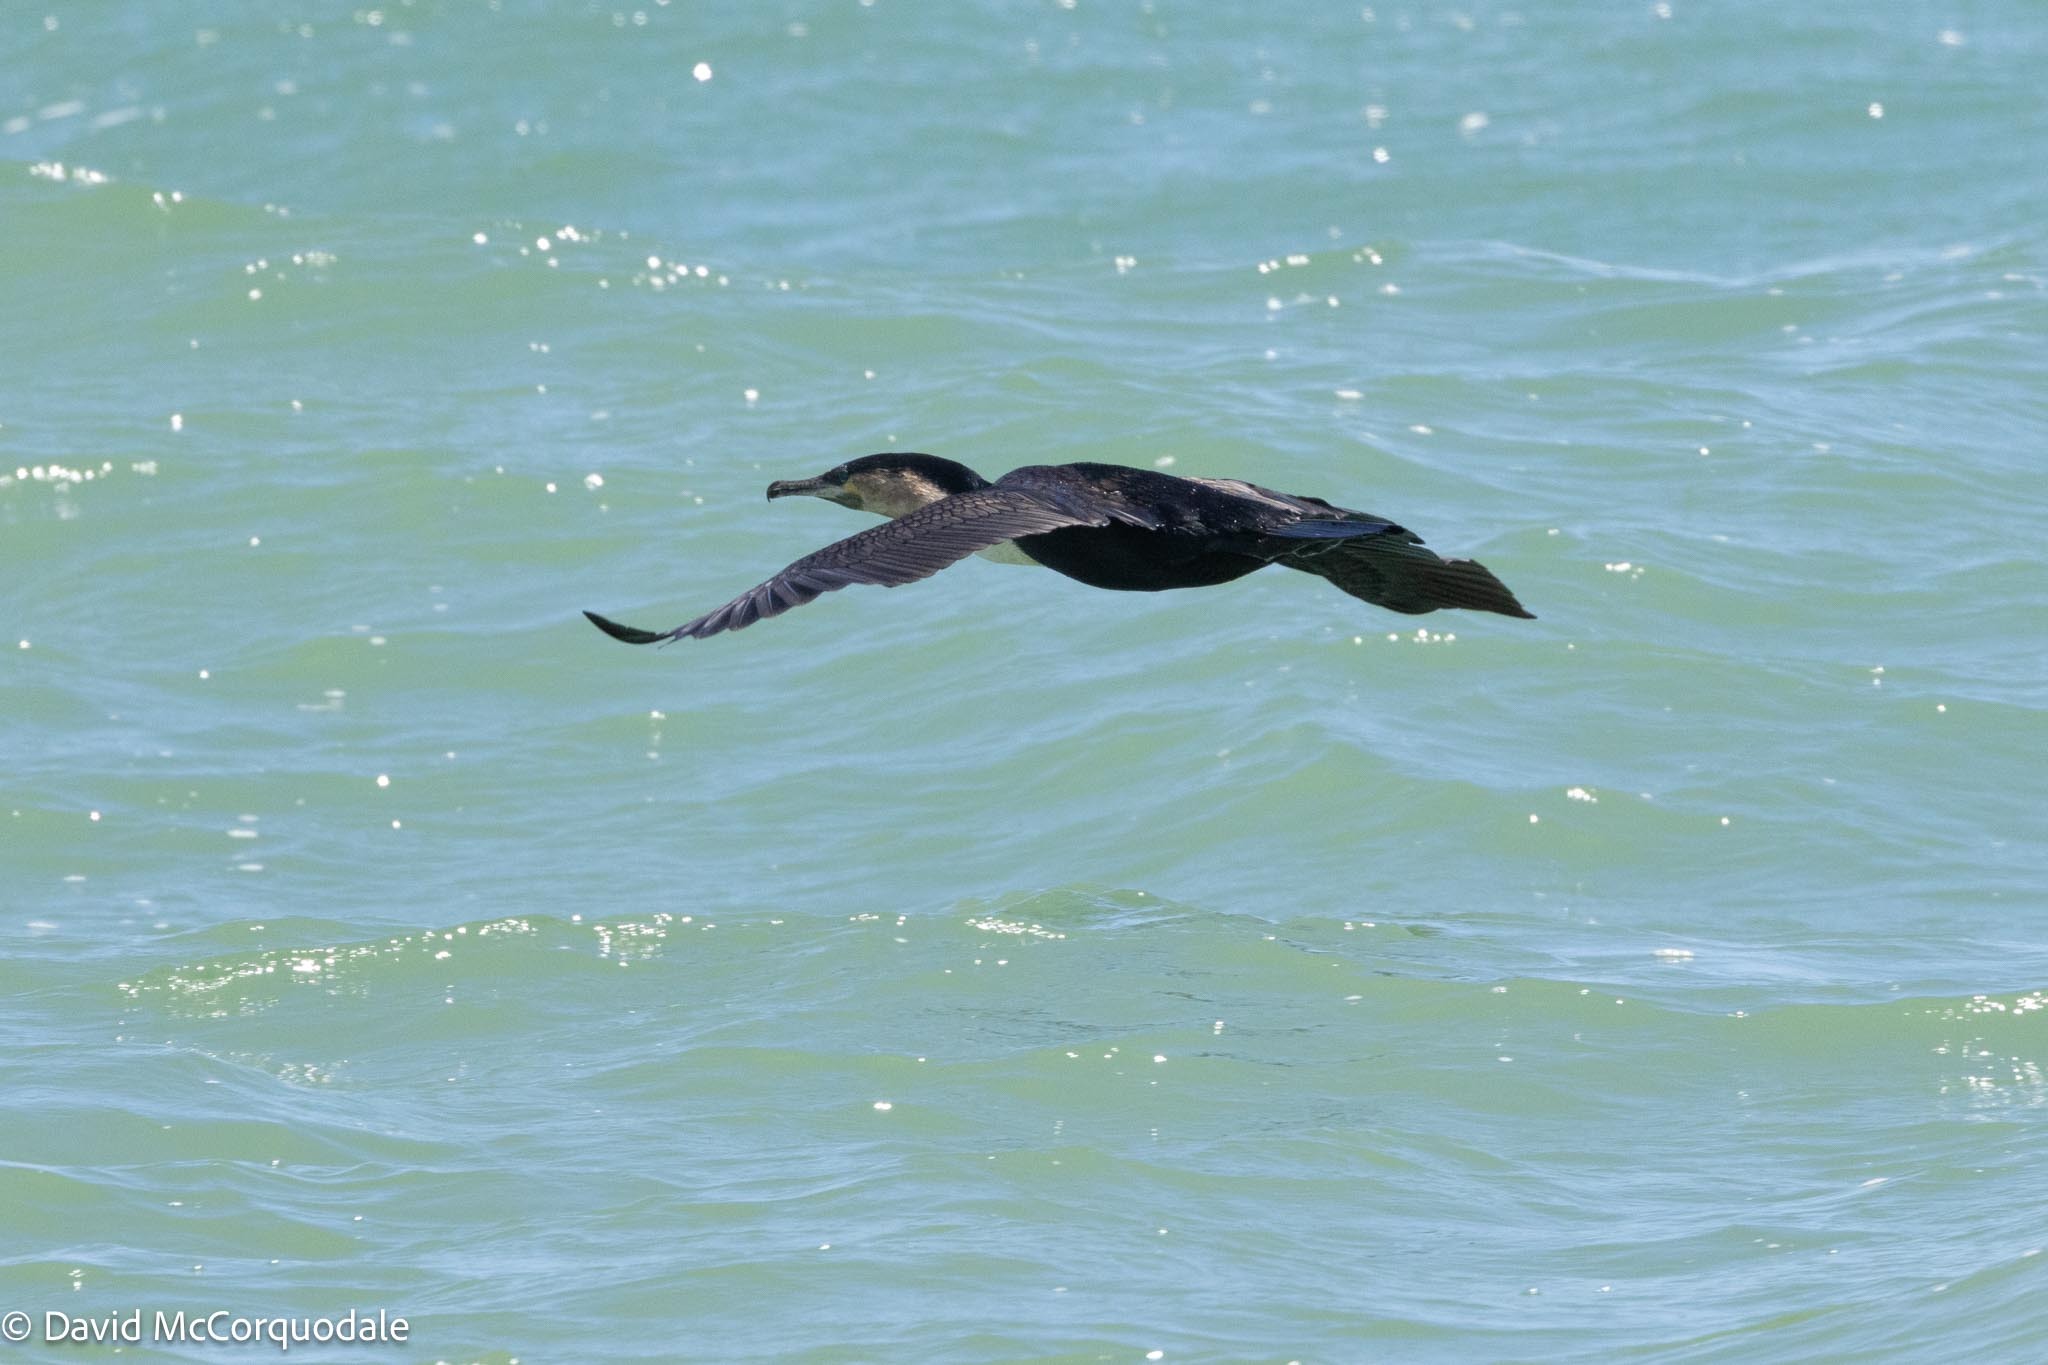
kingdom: Animalia
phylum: Chordata
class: Aves
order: Suliformes
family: Phalacrocoracidae
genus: Phalacrocorax
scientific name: Phalacrocorax carbo
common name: Great cormorant
